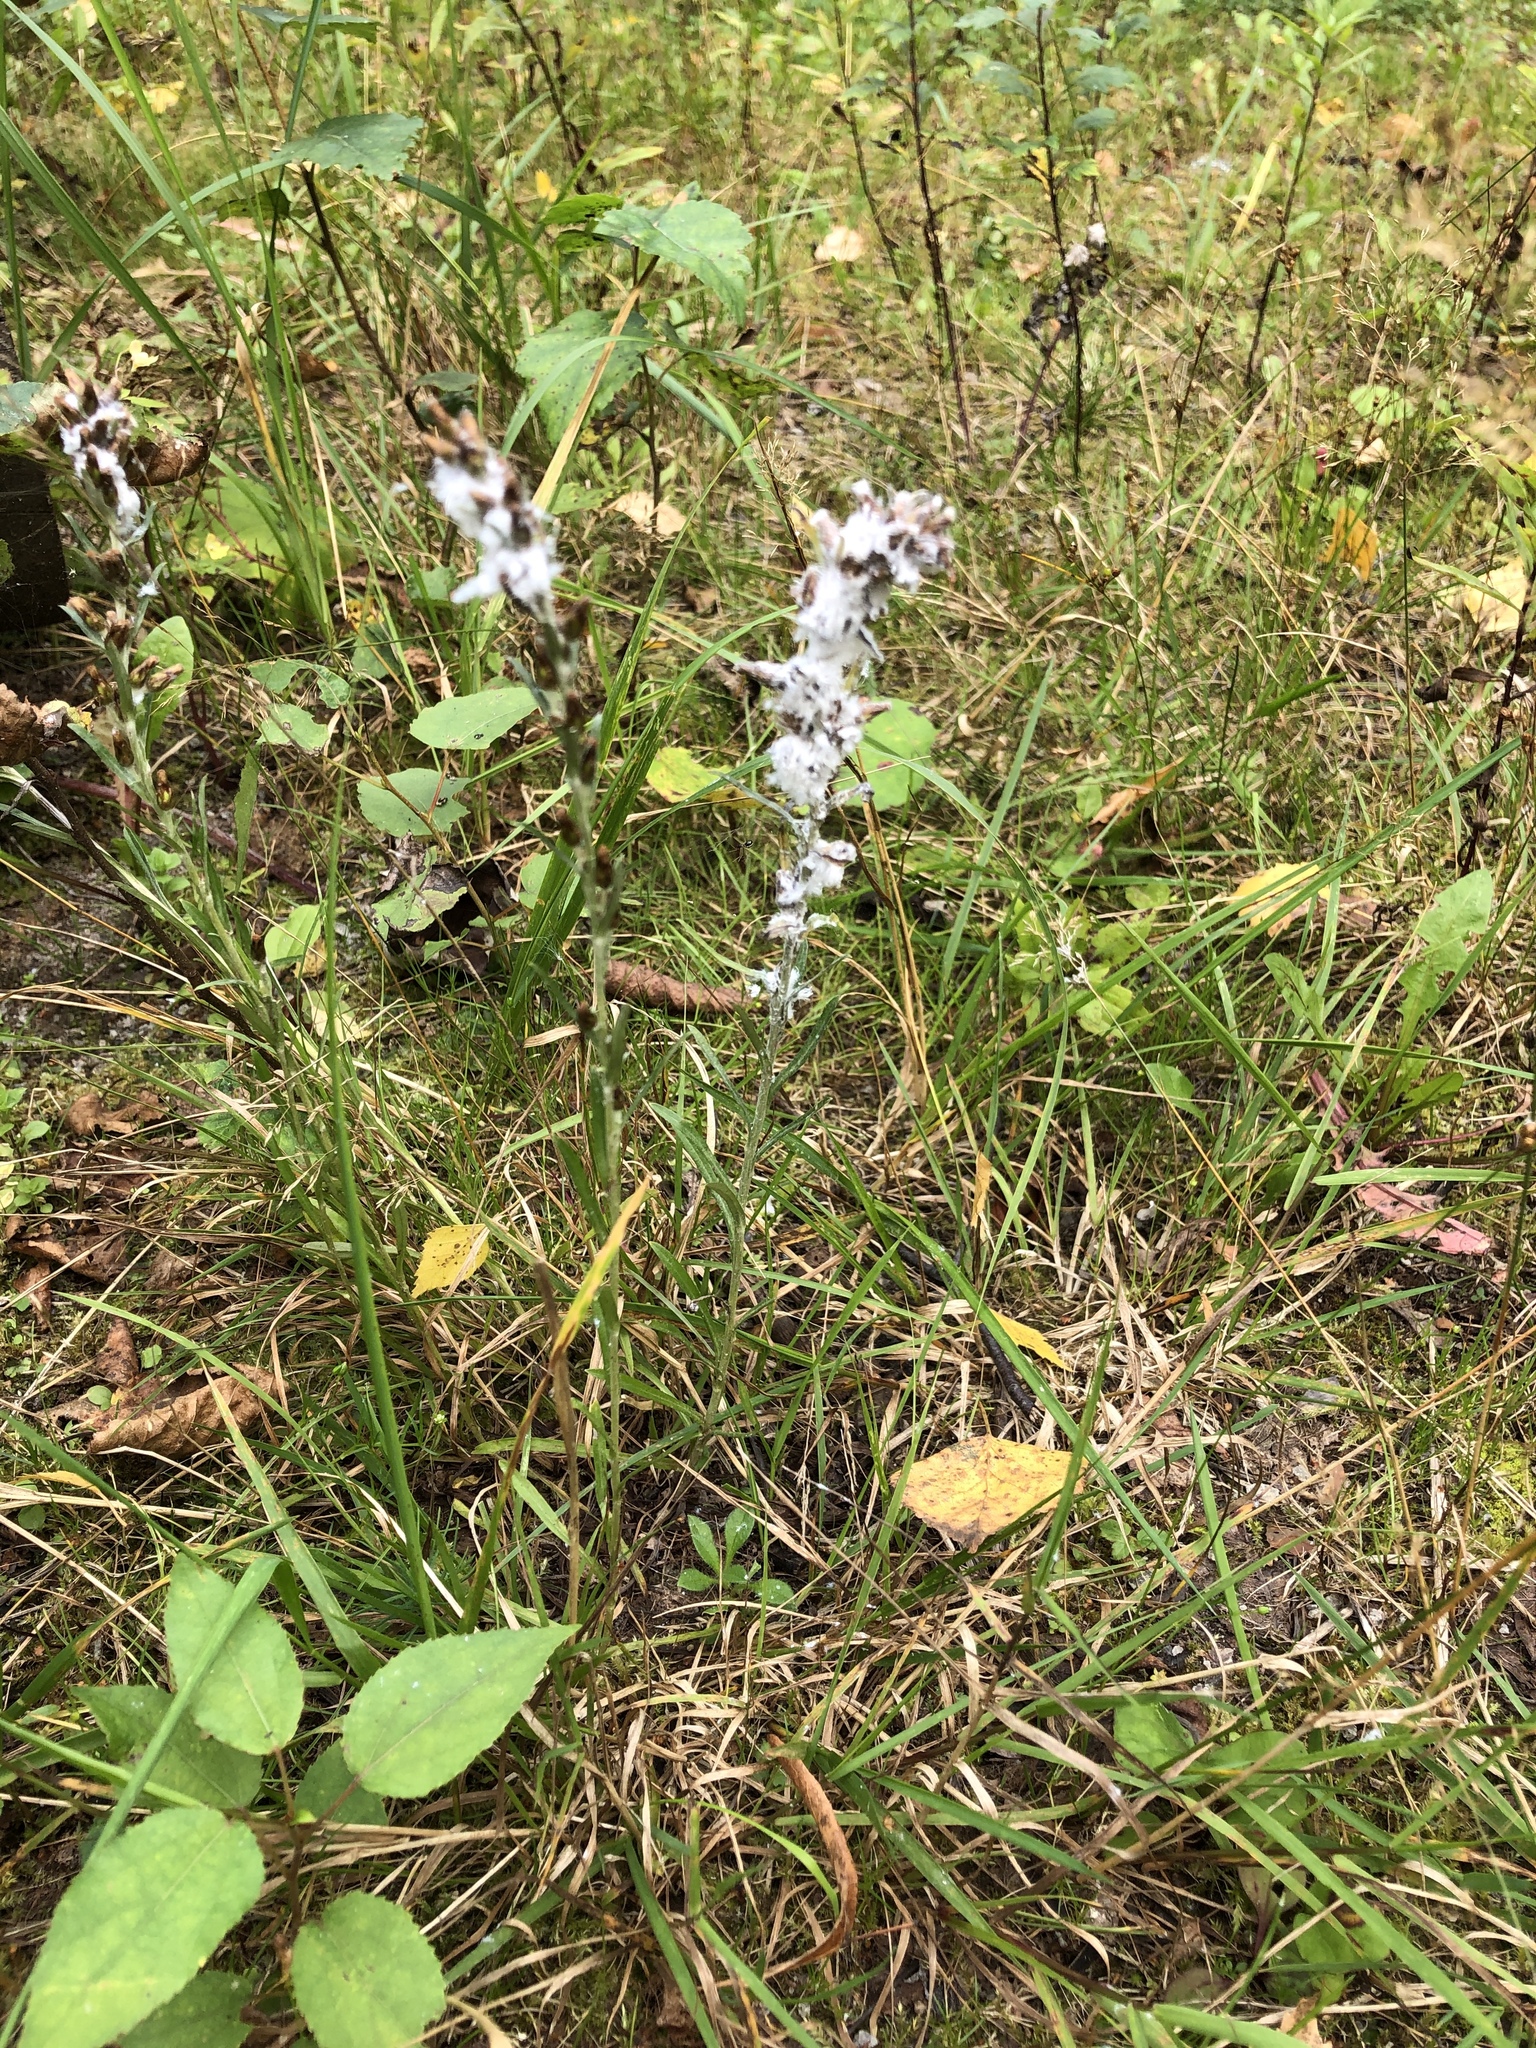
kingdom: Plantae
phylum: Tracheophyta
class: Magnoliopsida
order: Asterales
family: Asteraceae
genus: Omalotheca
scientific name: Omalotheca sylvatica
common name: Heath cudweed
